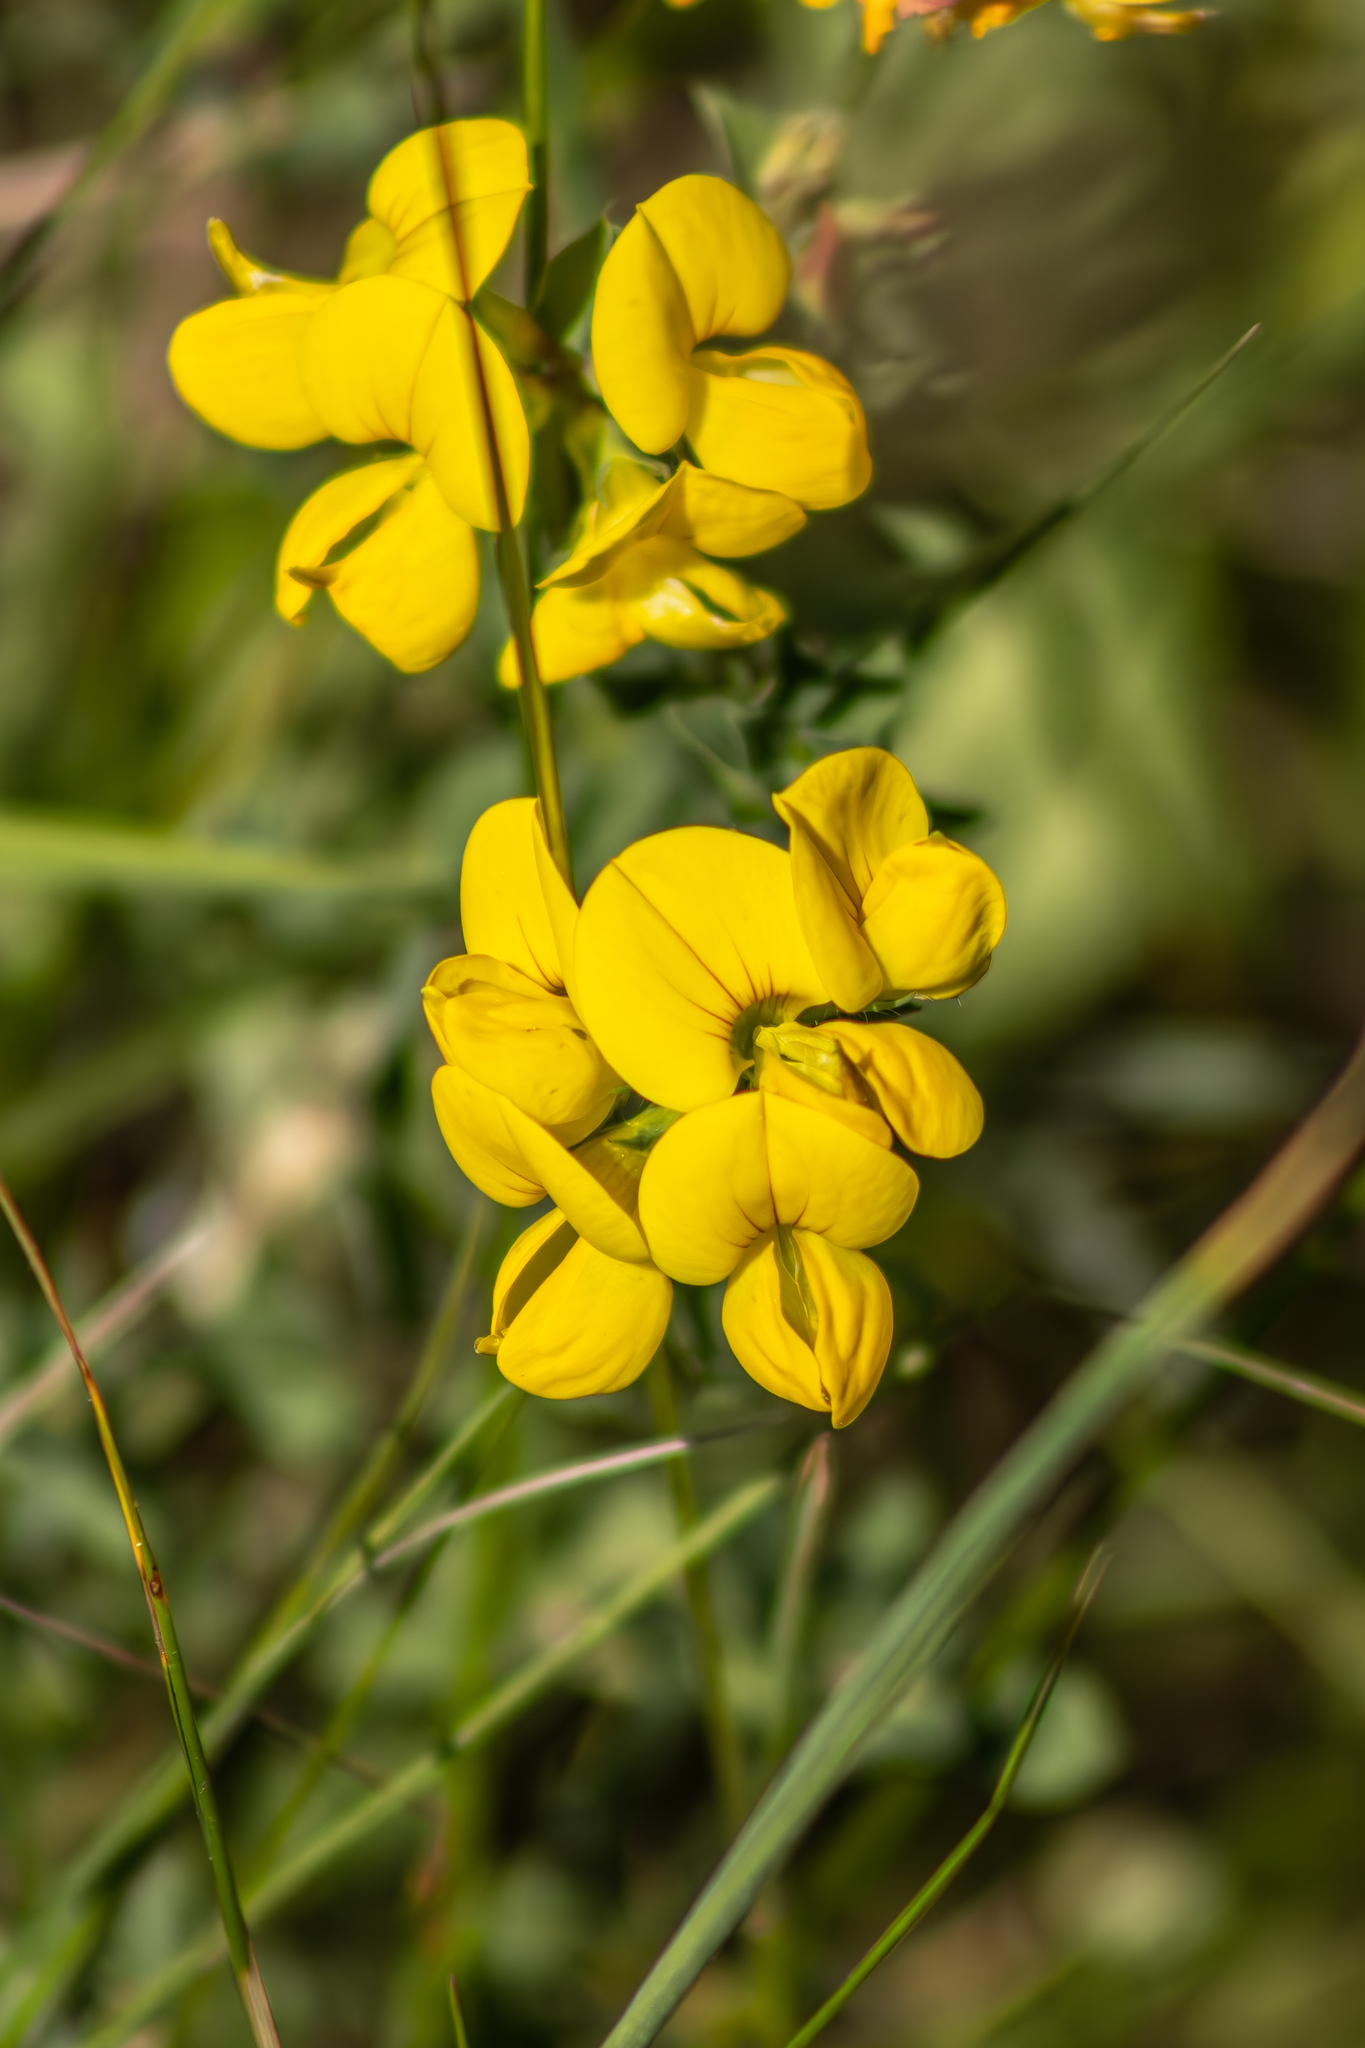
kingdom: Plantae
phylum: Tracheophyta
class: Magnoliopsida
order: Fabales
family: Fabaceae
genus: Lotus
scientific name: Lotus pedunculatus
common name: Greater birdsfoot-trefoil
